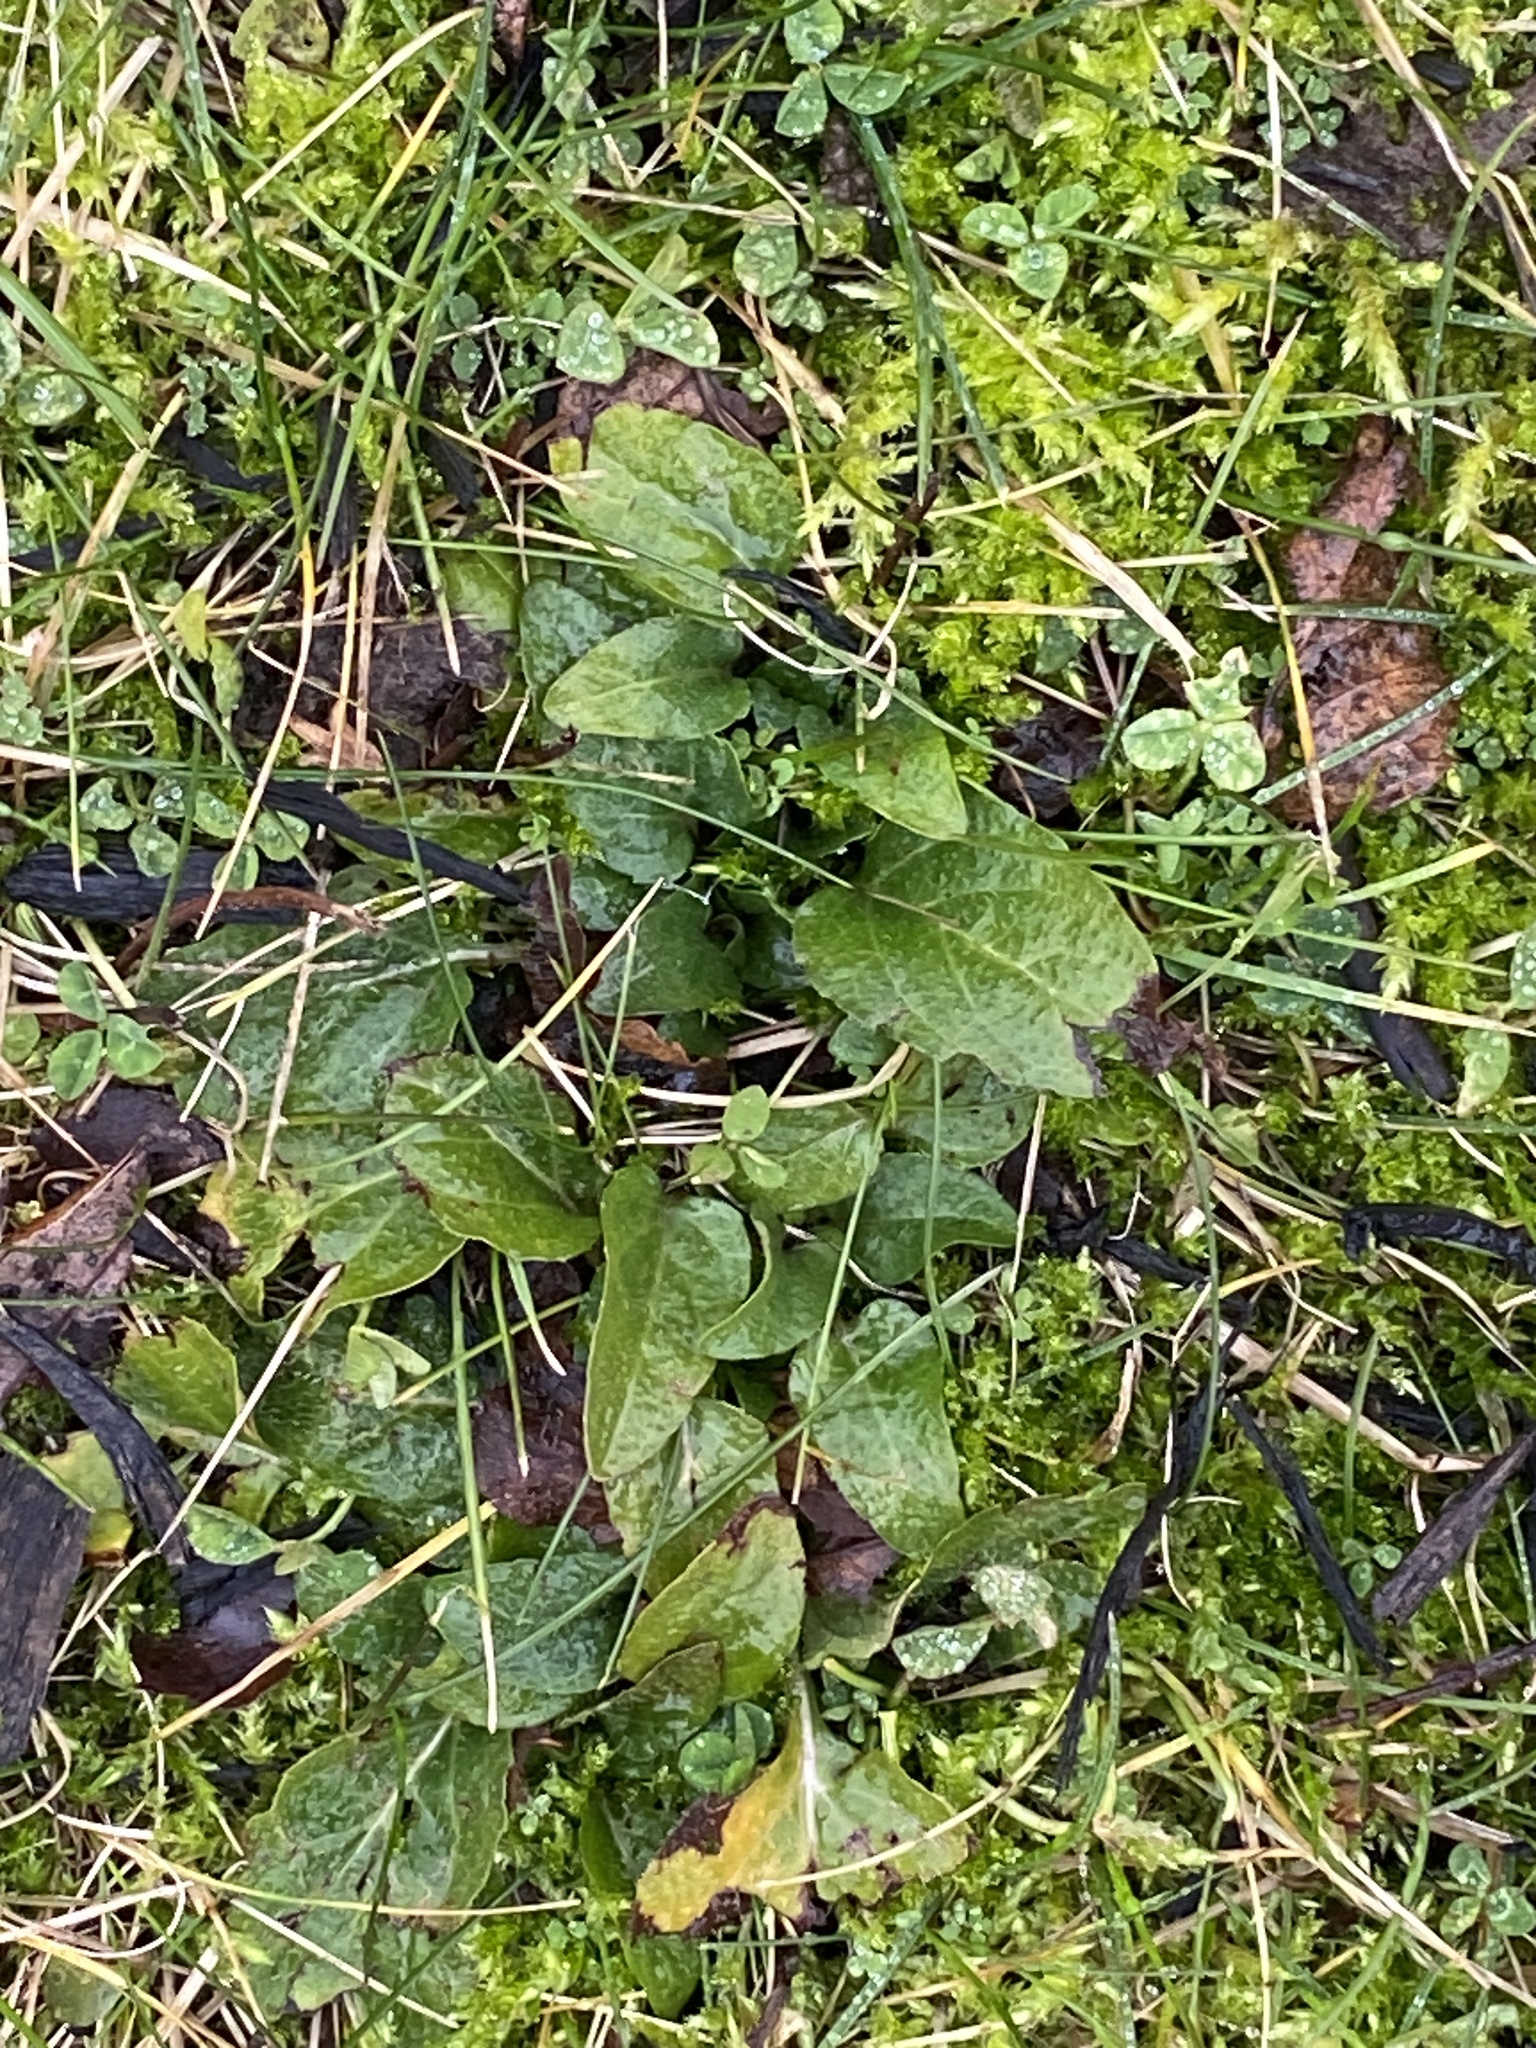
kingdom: Plantae
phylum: Tracheophyta
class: Magnoliopsida
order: Lamiales
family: Lamiaceae
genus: Prunella
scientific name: Prunella vulgaris
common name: Heal-all
